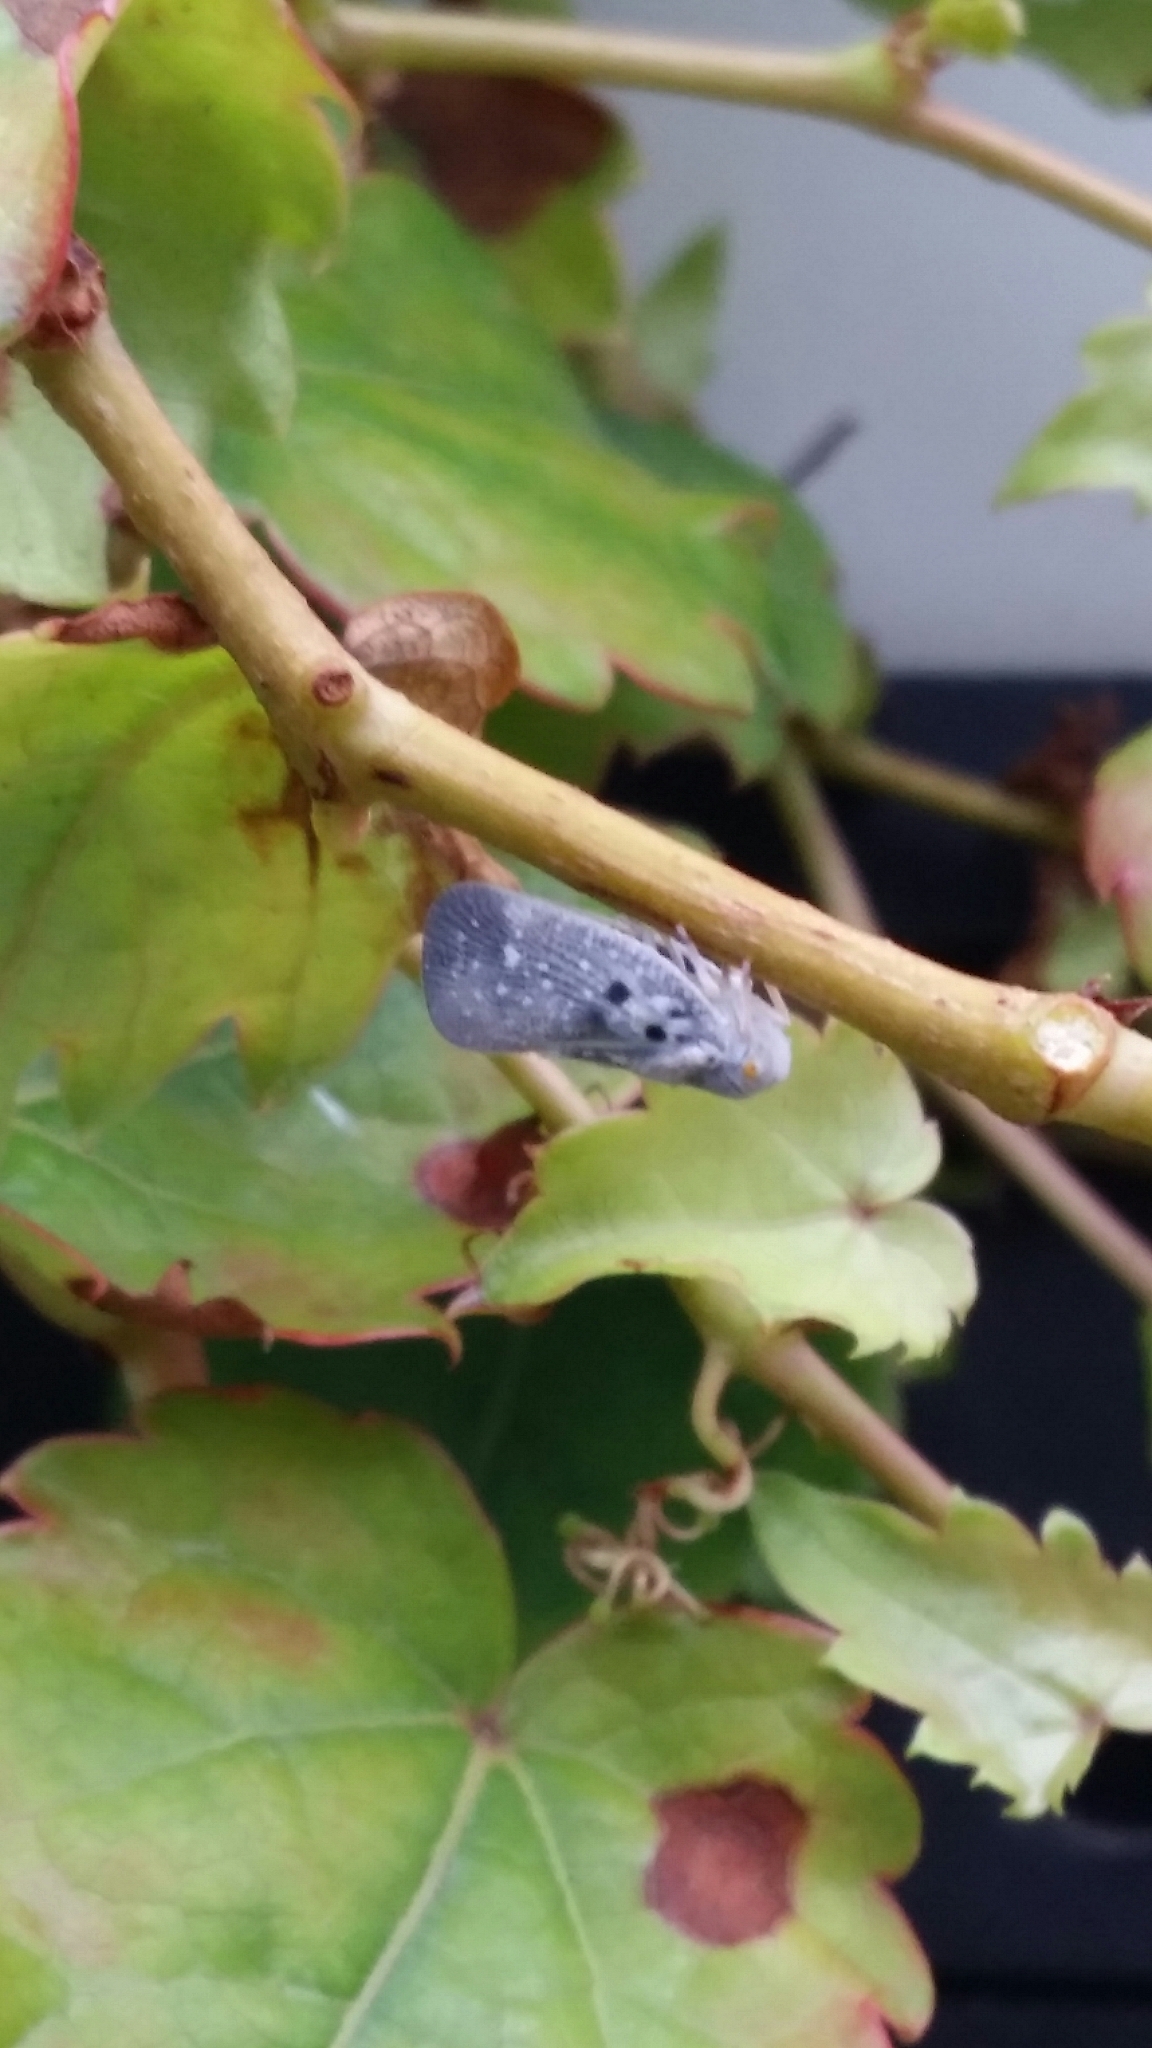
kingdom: Animalia
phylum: Arthropoda
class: Insecta
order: Hemiptera
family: Flatidae
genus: Metcalfa
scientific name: Metcalfa pruinosa
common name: Citrus flatid planthopper
